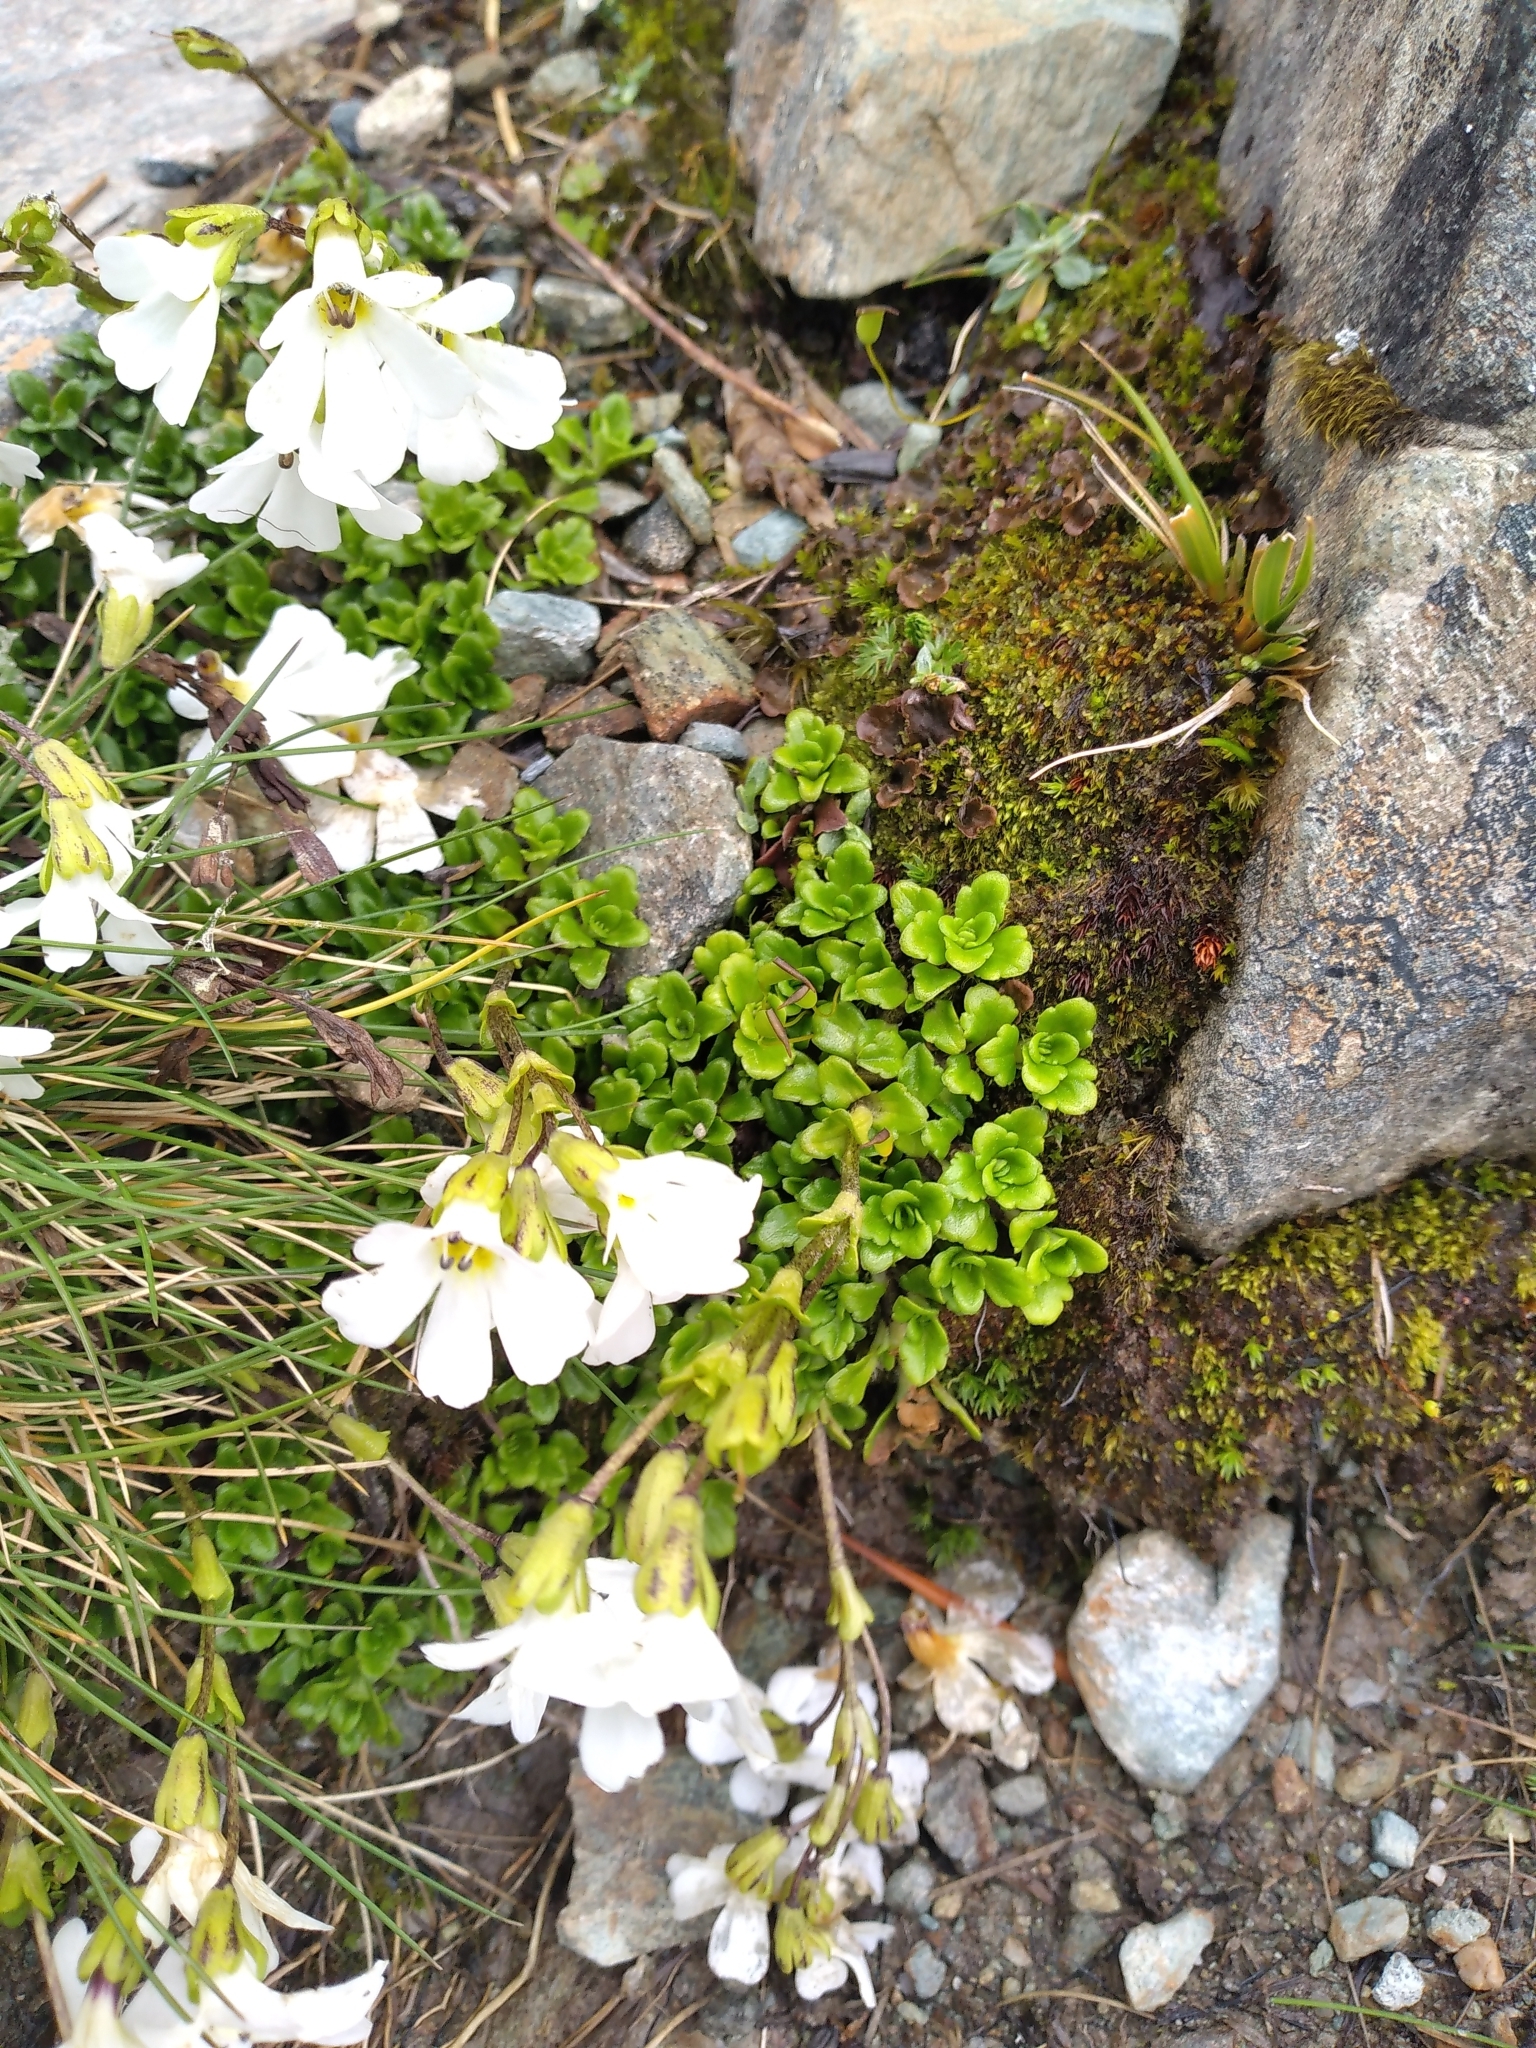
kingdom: Plantae
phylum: Tracheophyta
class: Magnoliopsida
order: Lamiales
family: Plantaginaceae
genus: Ourisia
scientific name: Ourisia caespitosa
